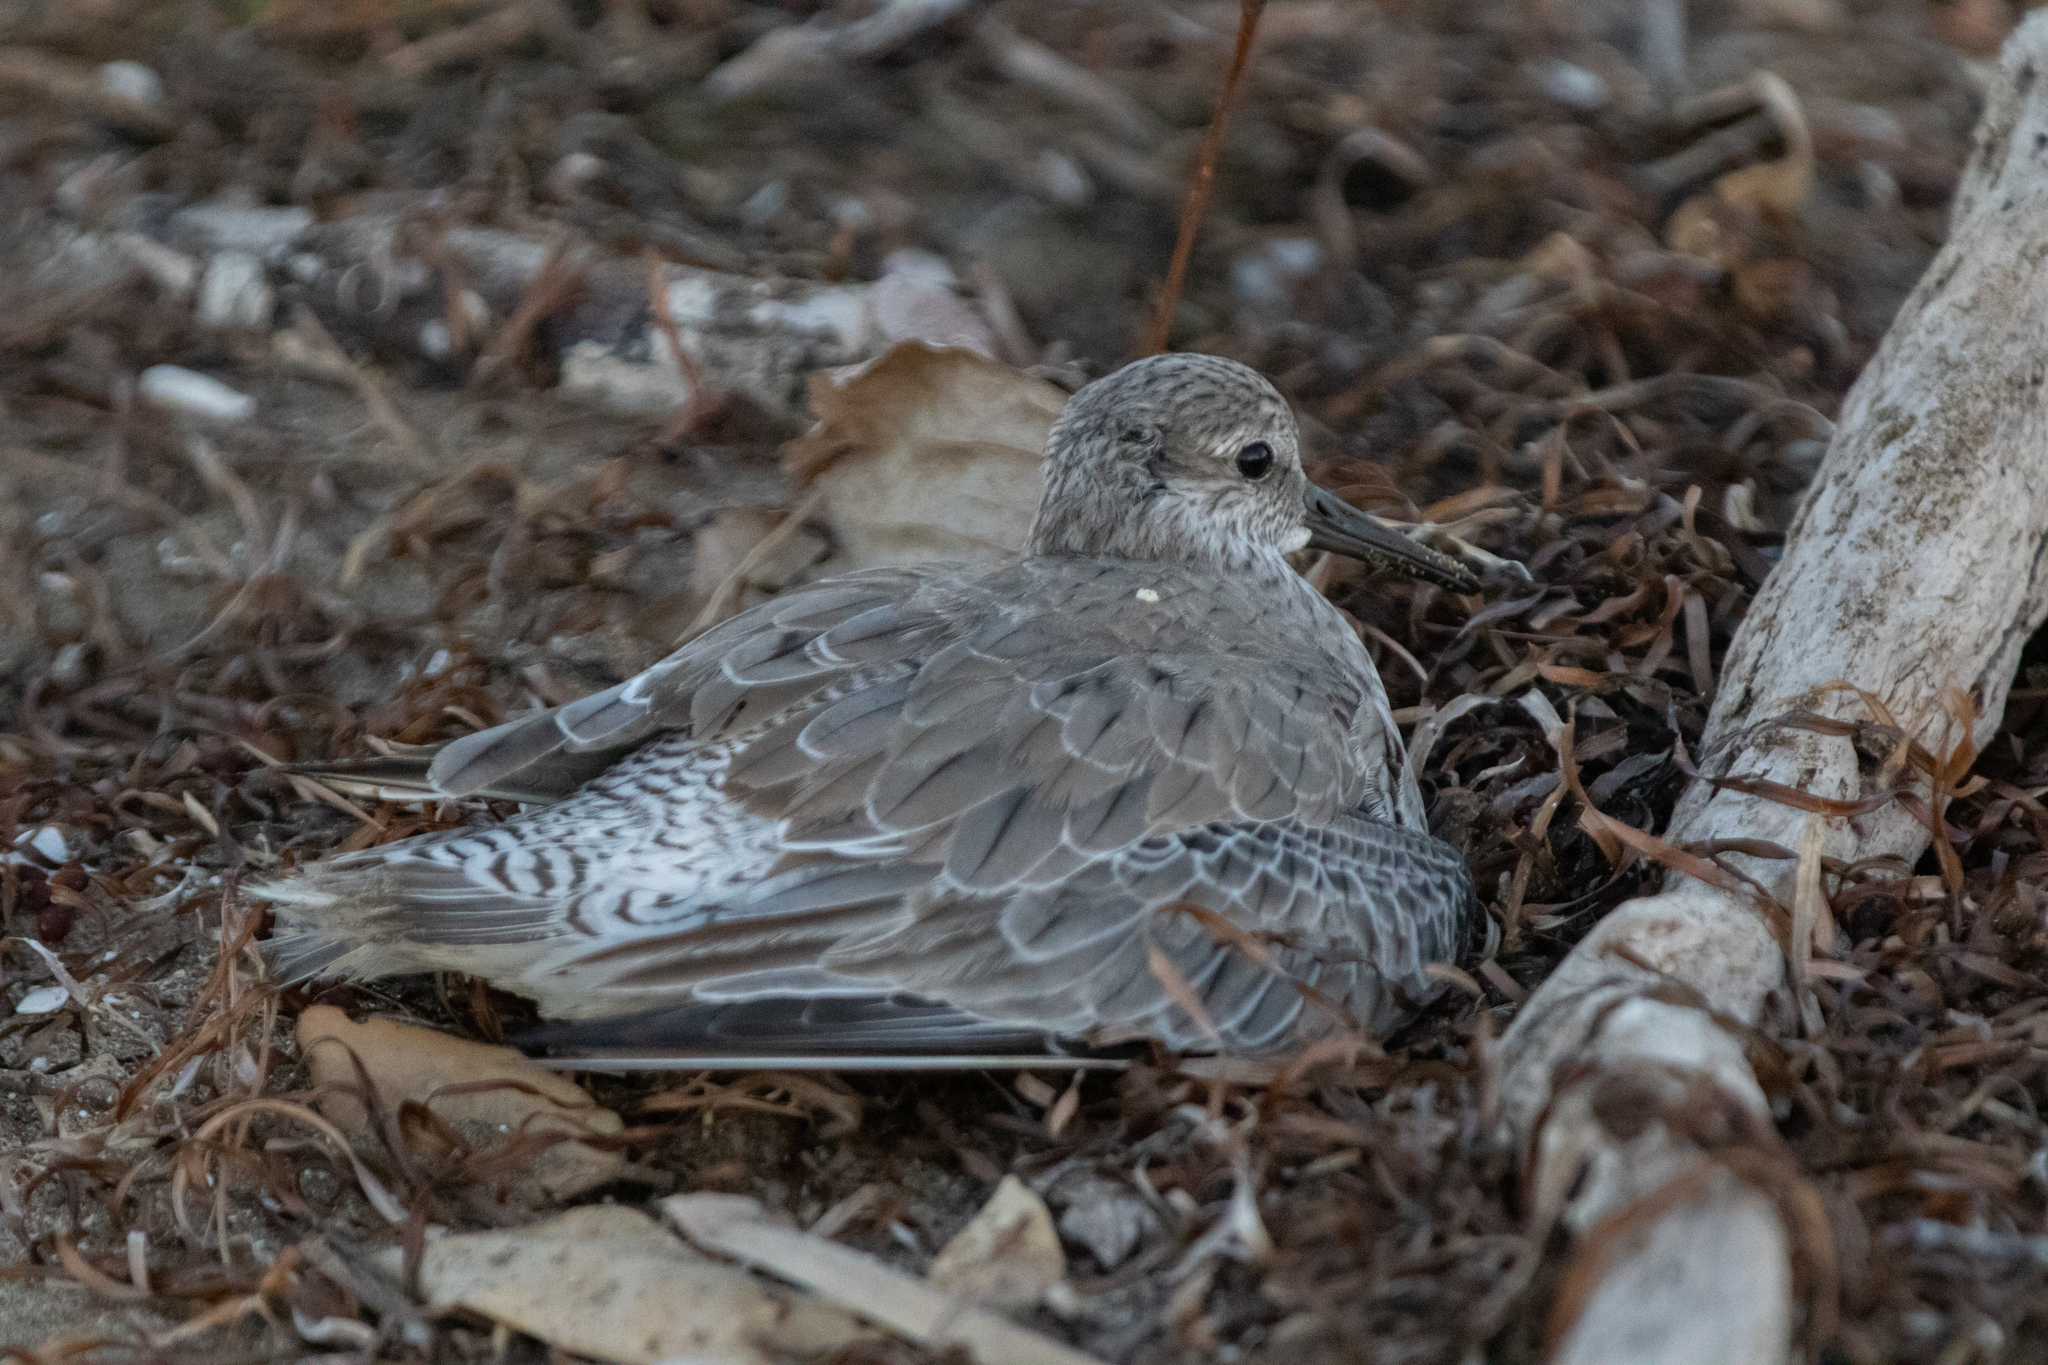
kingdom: Animalia
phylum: Chordata
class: Aves
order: Charadriiformes
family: Scolopacidae
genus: Calidris
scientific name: Calidris canutus
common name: Red knot
